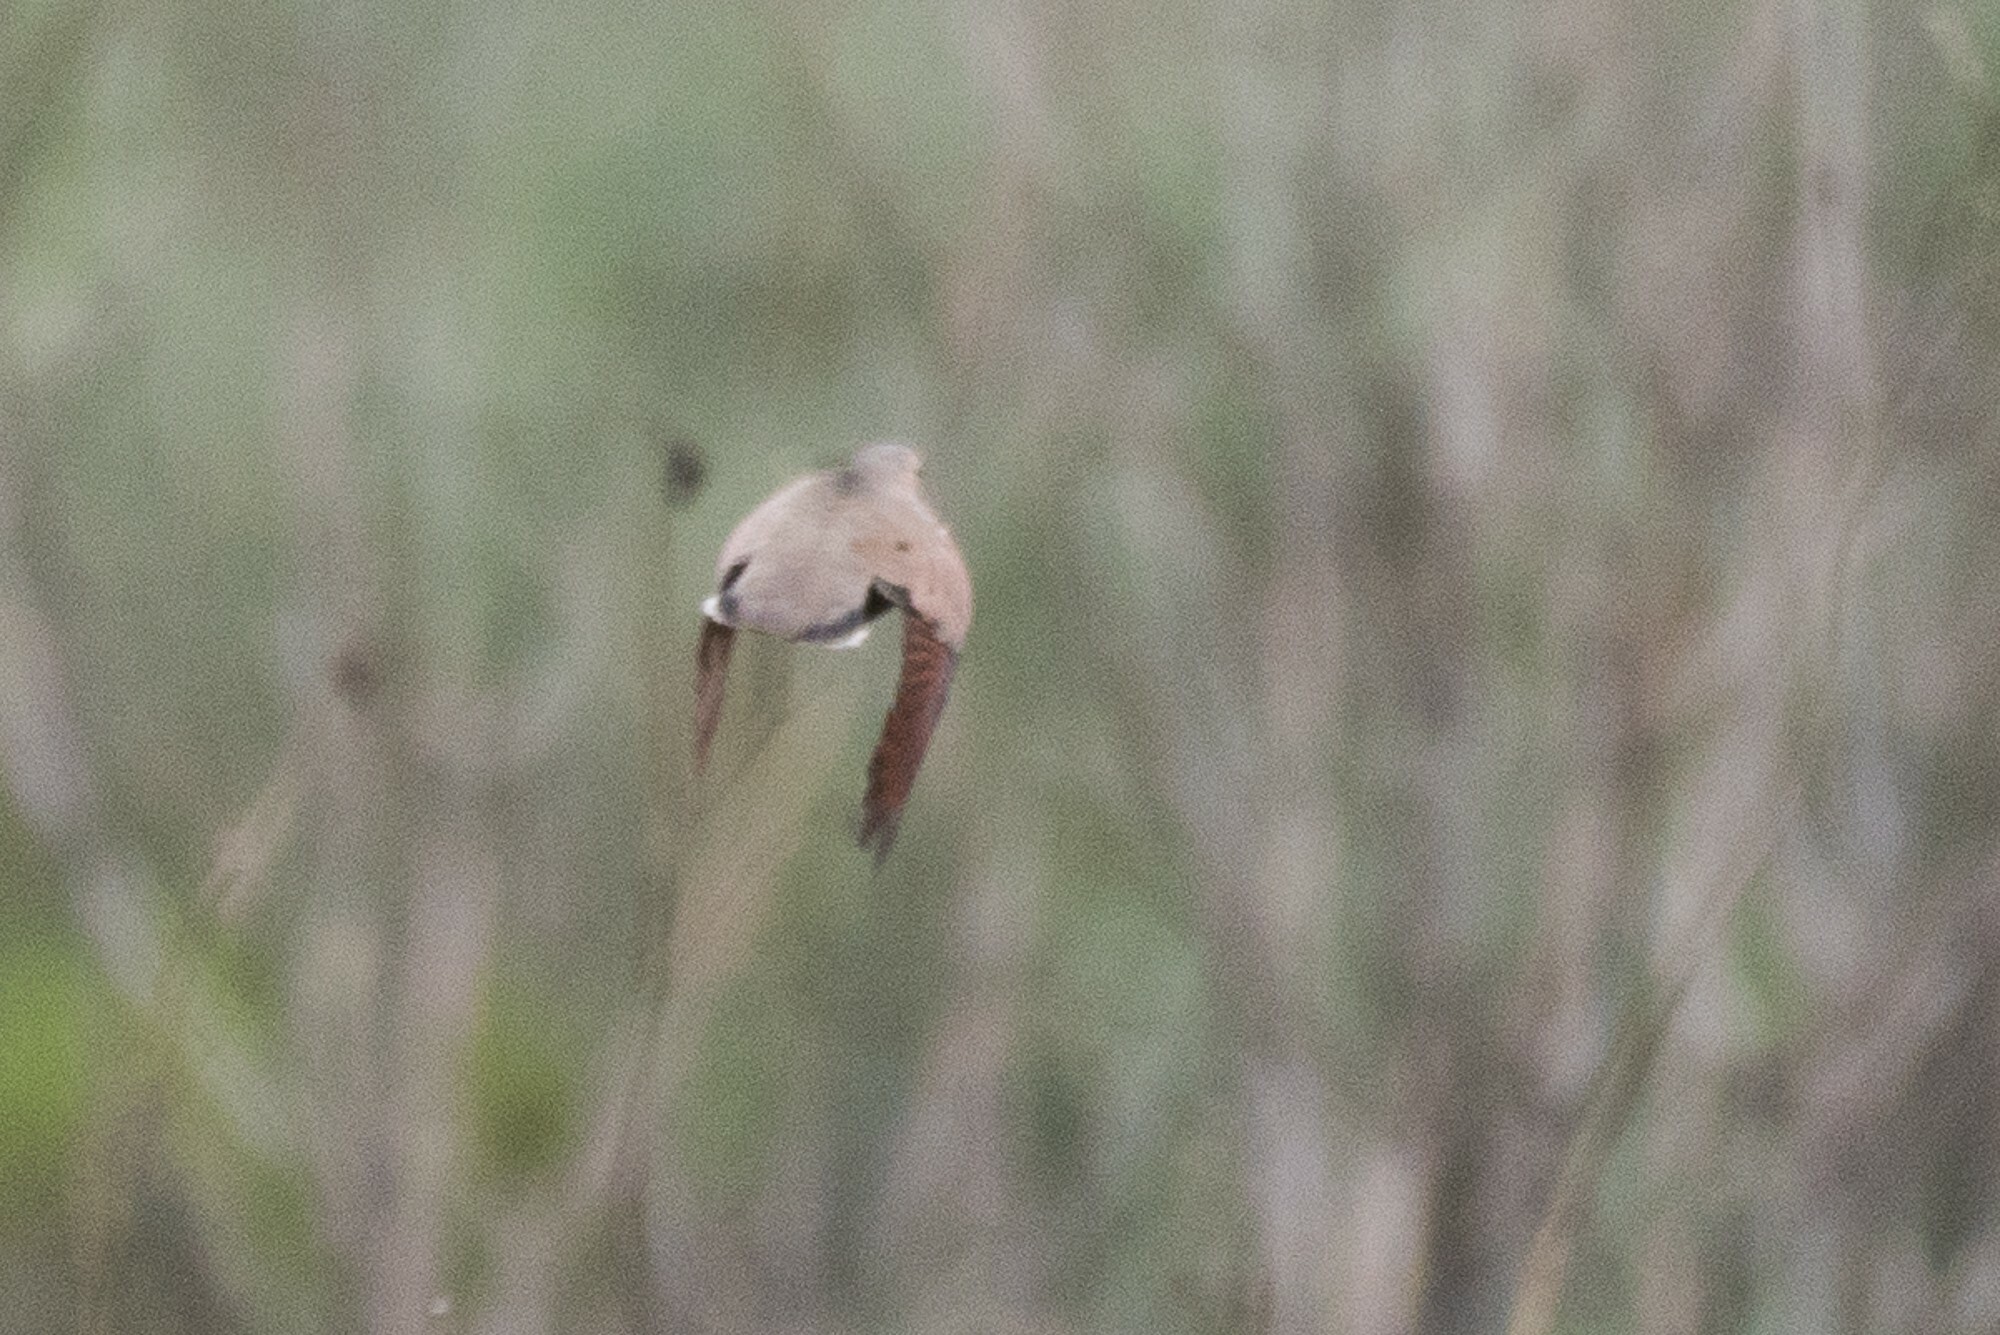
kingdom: Animalia
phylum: Chordata
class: Aves
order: Columbiformes
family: Columbidae
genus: Columbina
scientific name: Columbina passerina
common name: Common ground-dove
